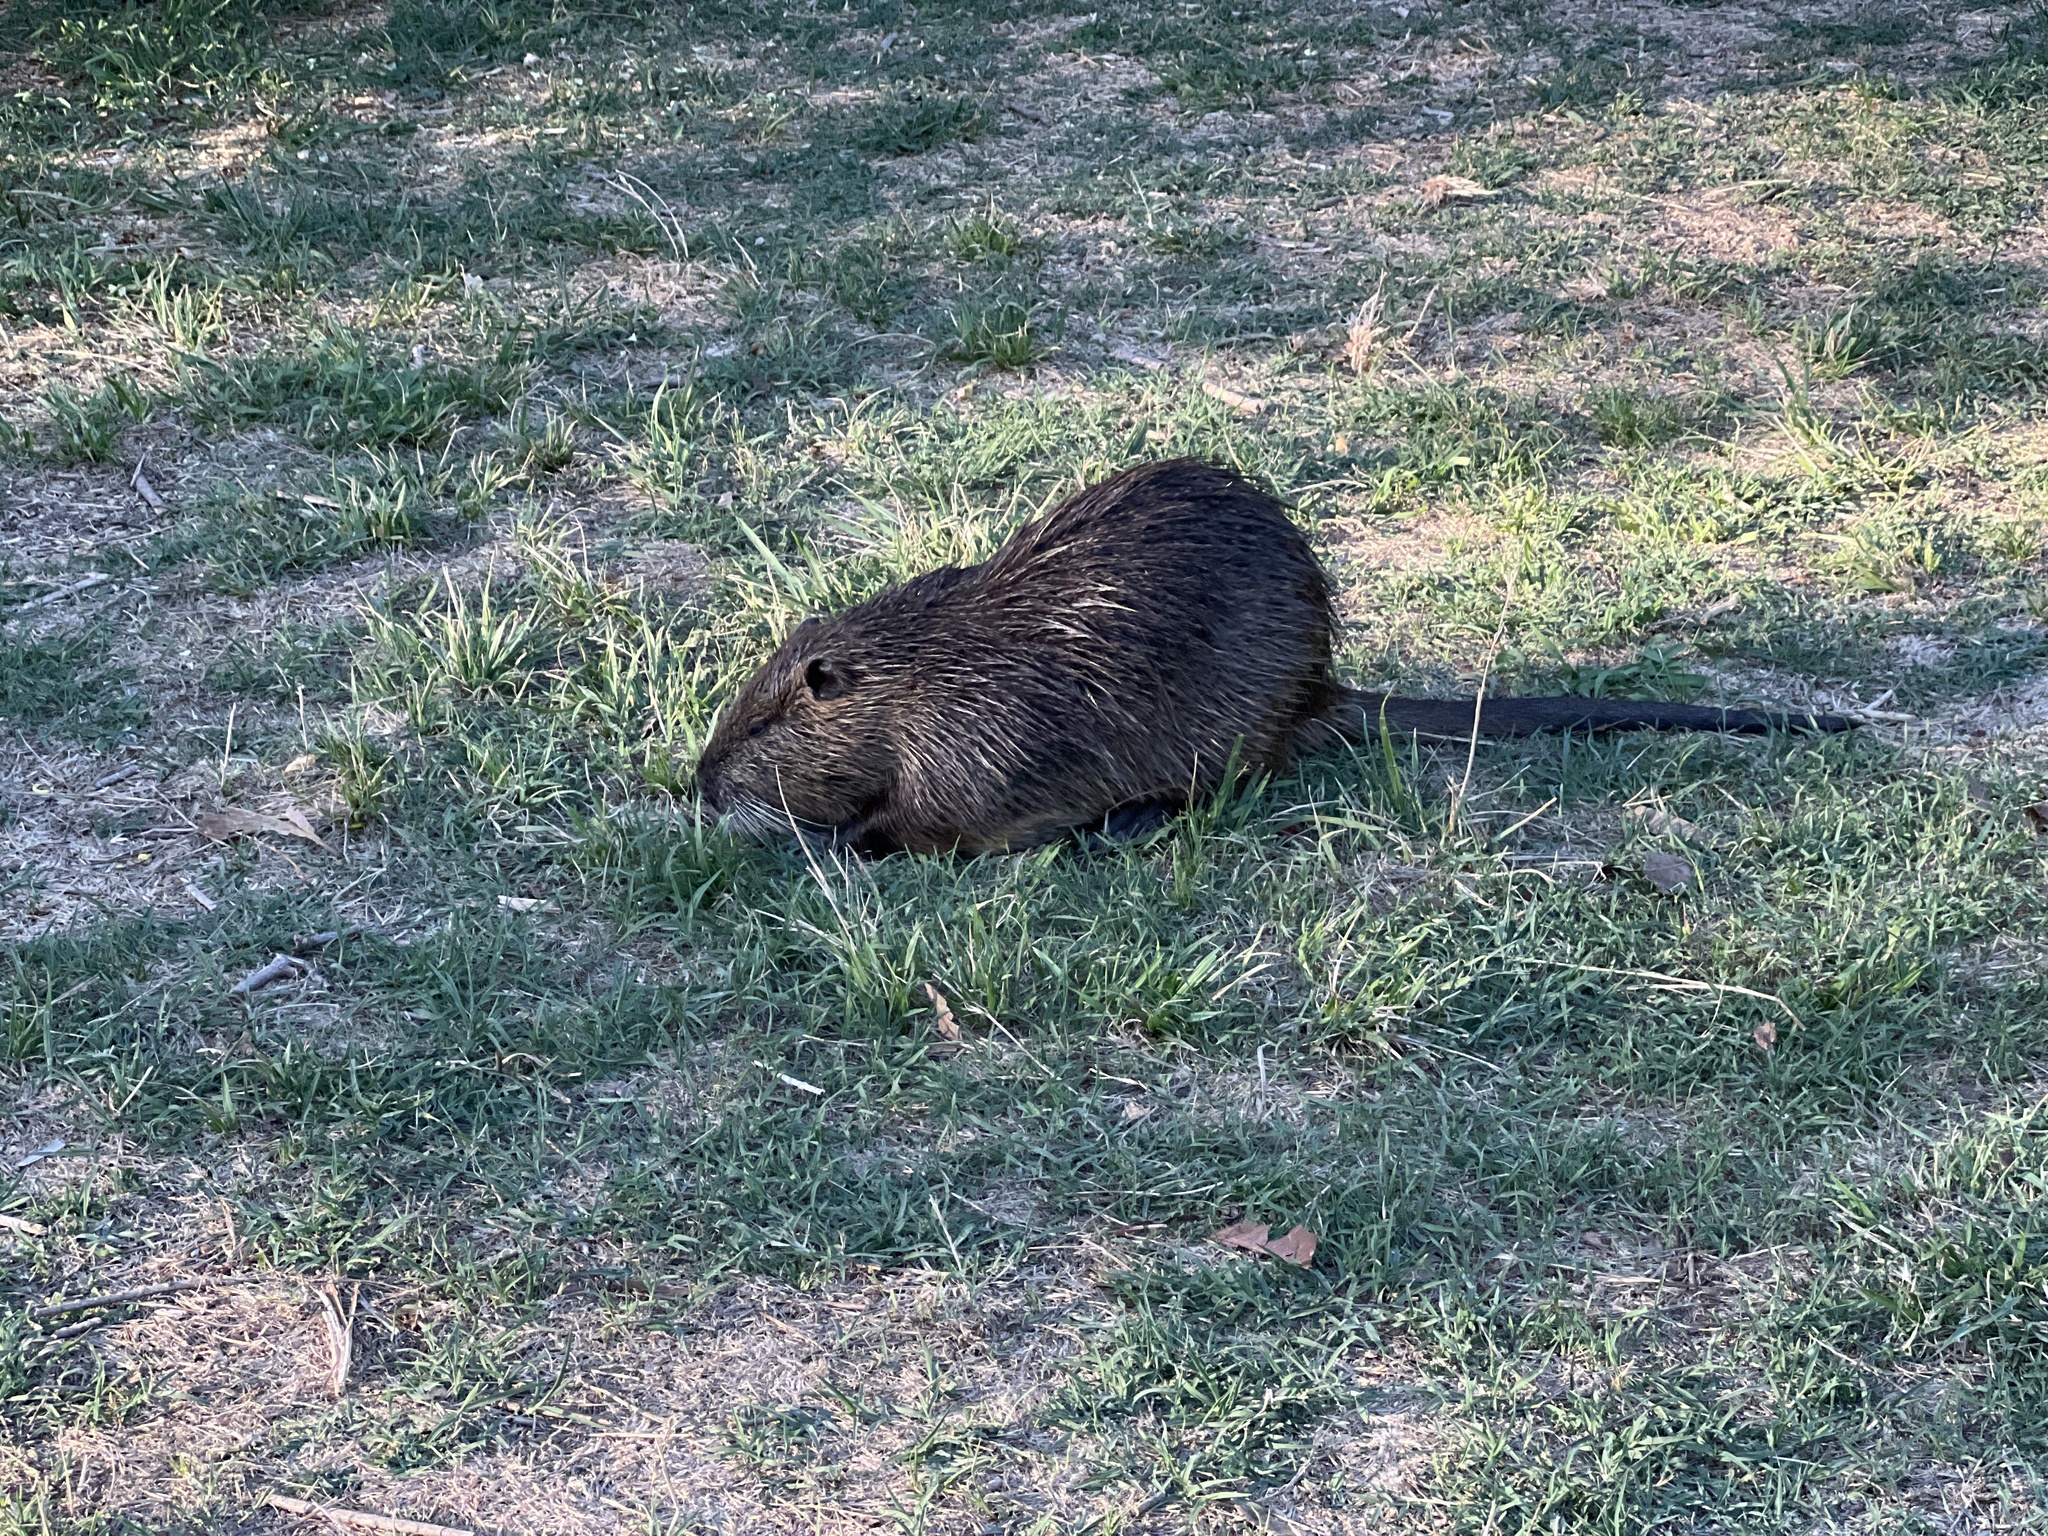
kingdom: Animalia
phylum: Chordata
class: Mammalia
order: Rodentia
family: Myocastoridae
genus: Myocastor
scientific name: Myocastor coypus
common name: Coypu
